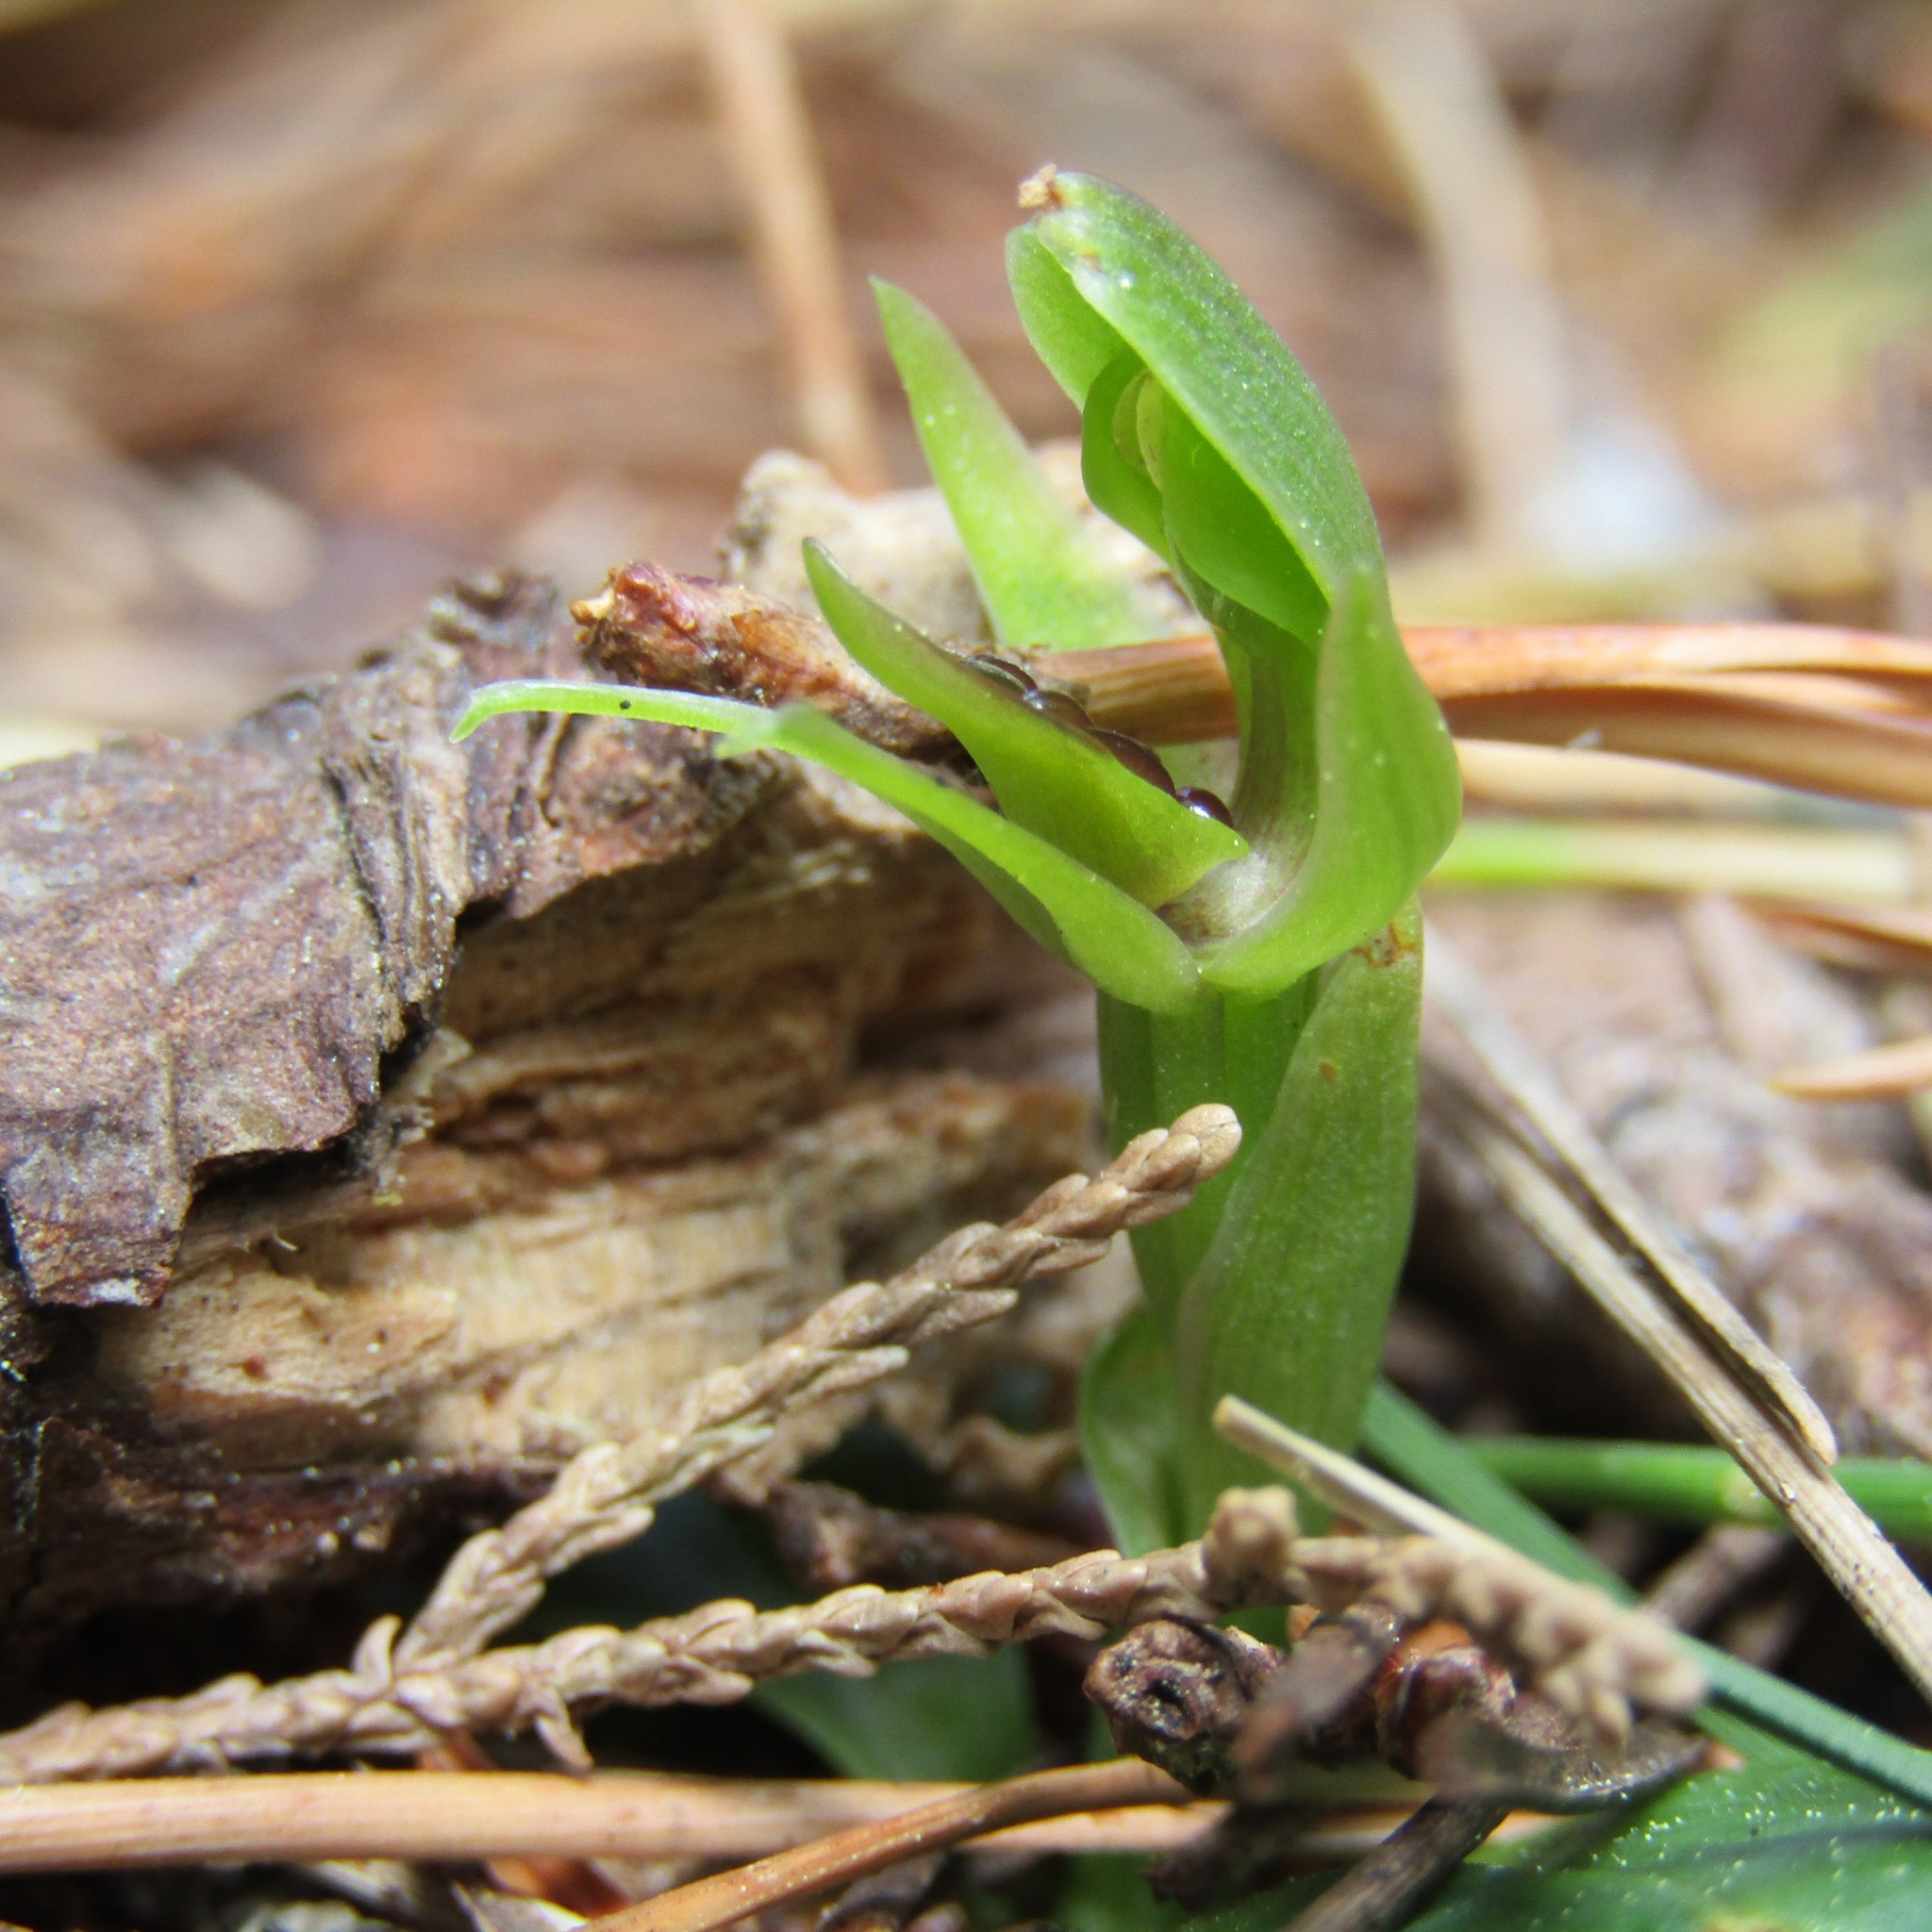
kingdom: Plantae
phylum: Tracheophyta
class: Liliopsida
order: Asparagales
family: Orchidaceae
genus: Chiloglottis
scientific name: Chiloglottis cornuta
